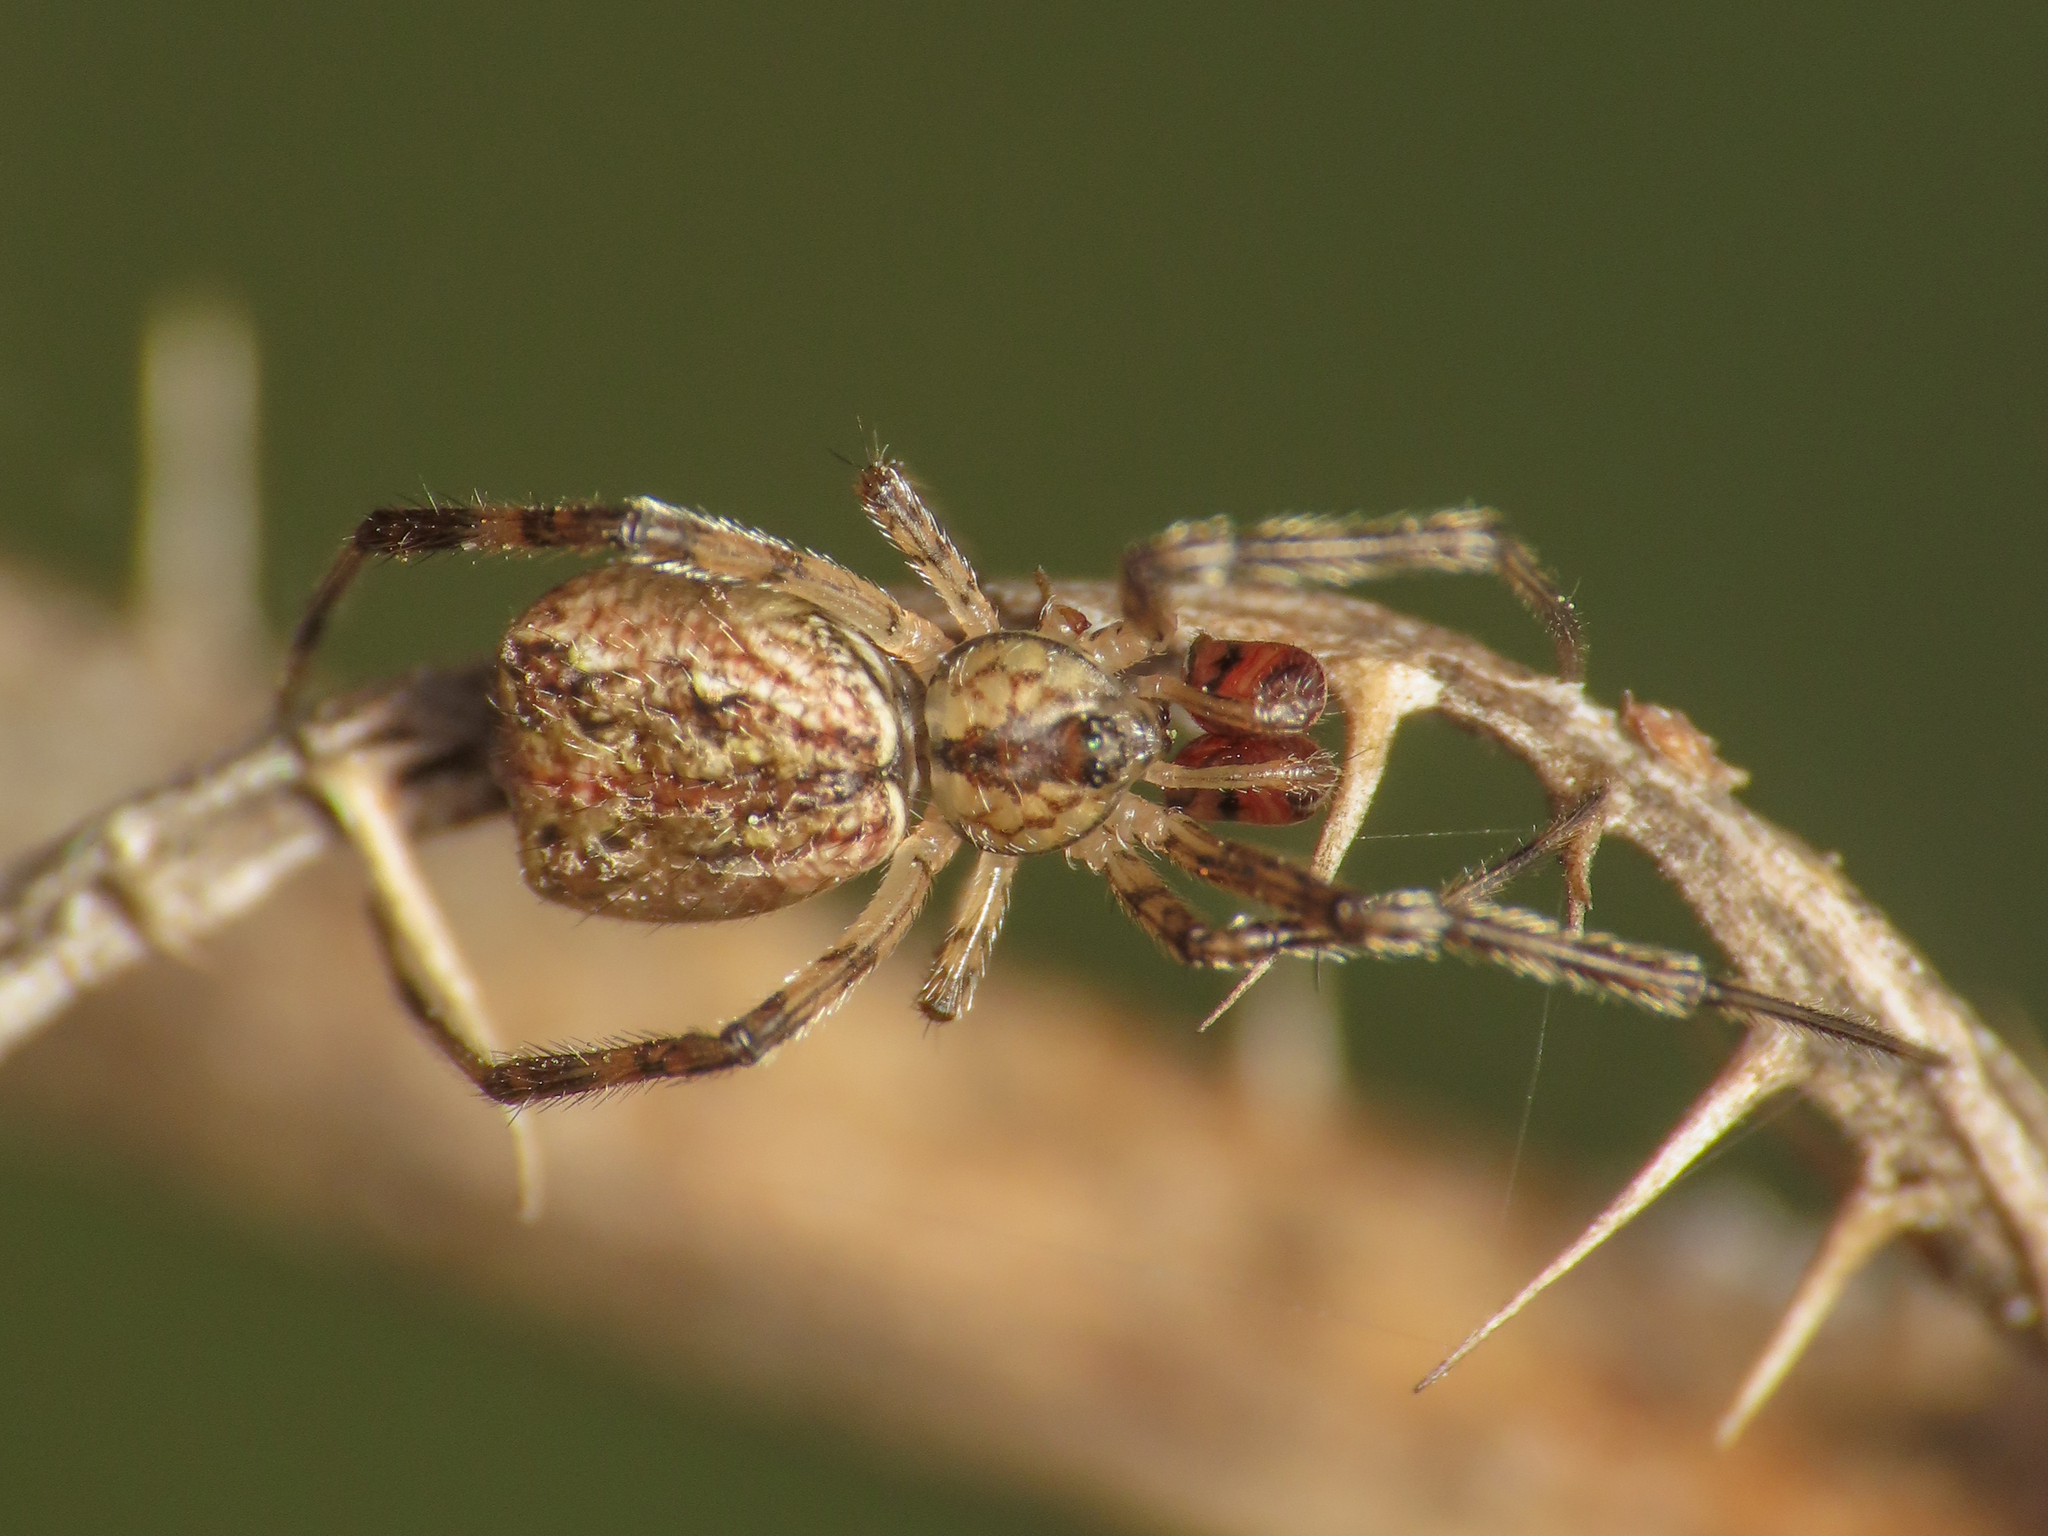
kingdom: Animalia
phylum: Arthropoda
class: Arachnida
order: Araneae
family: Theridiidae
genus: Episinus
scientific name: Episinus maculipes
